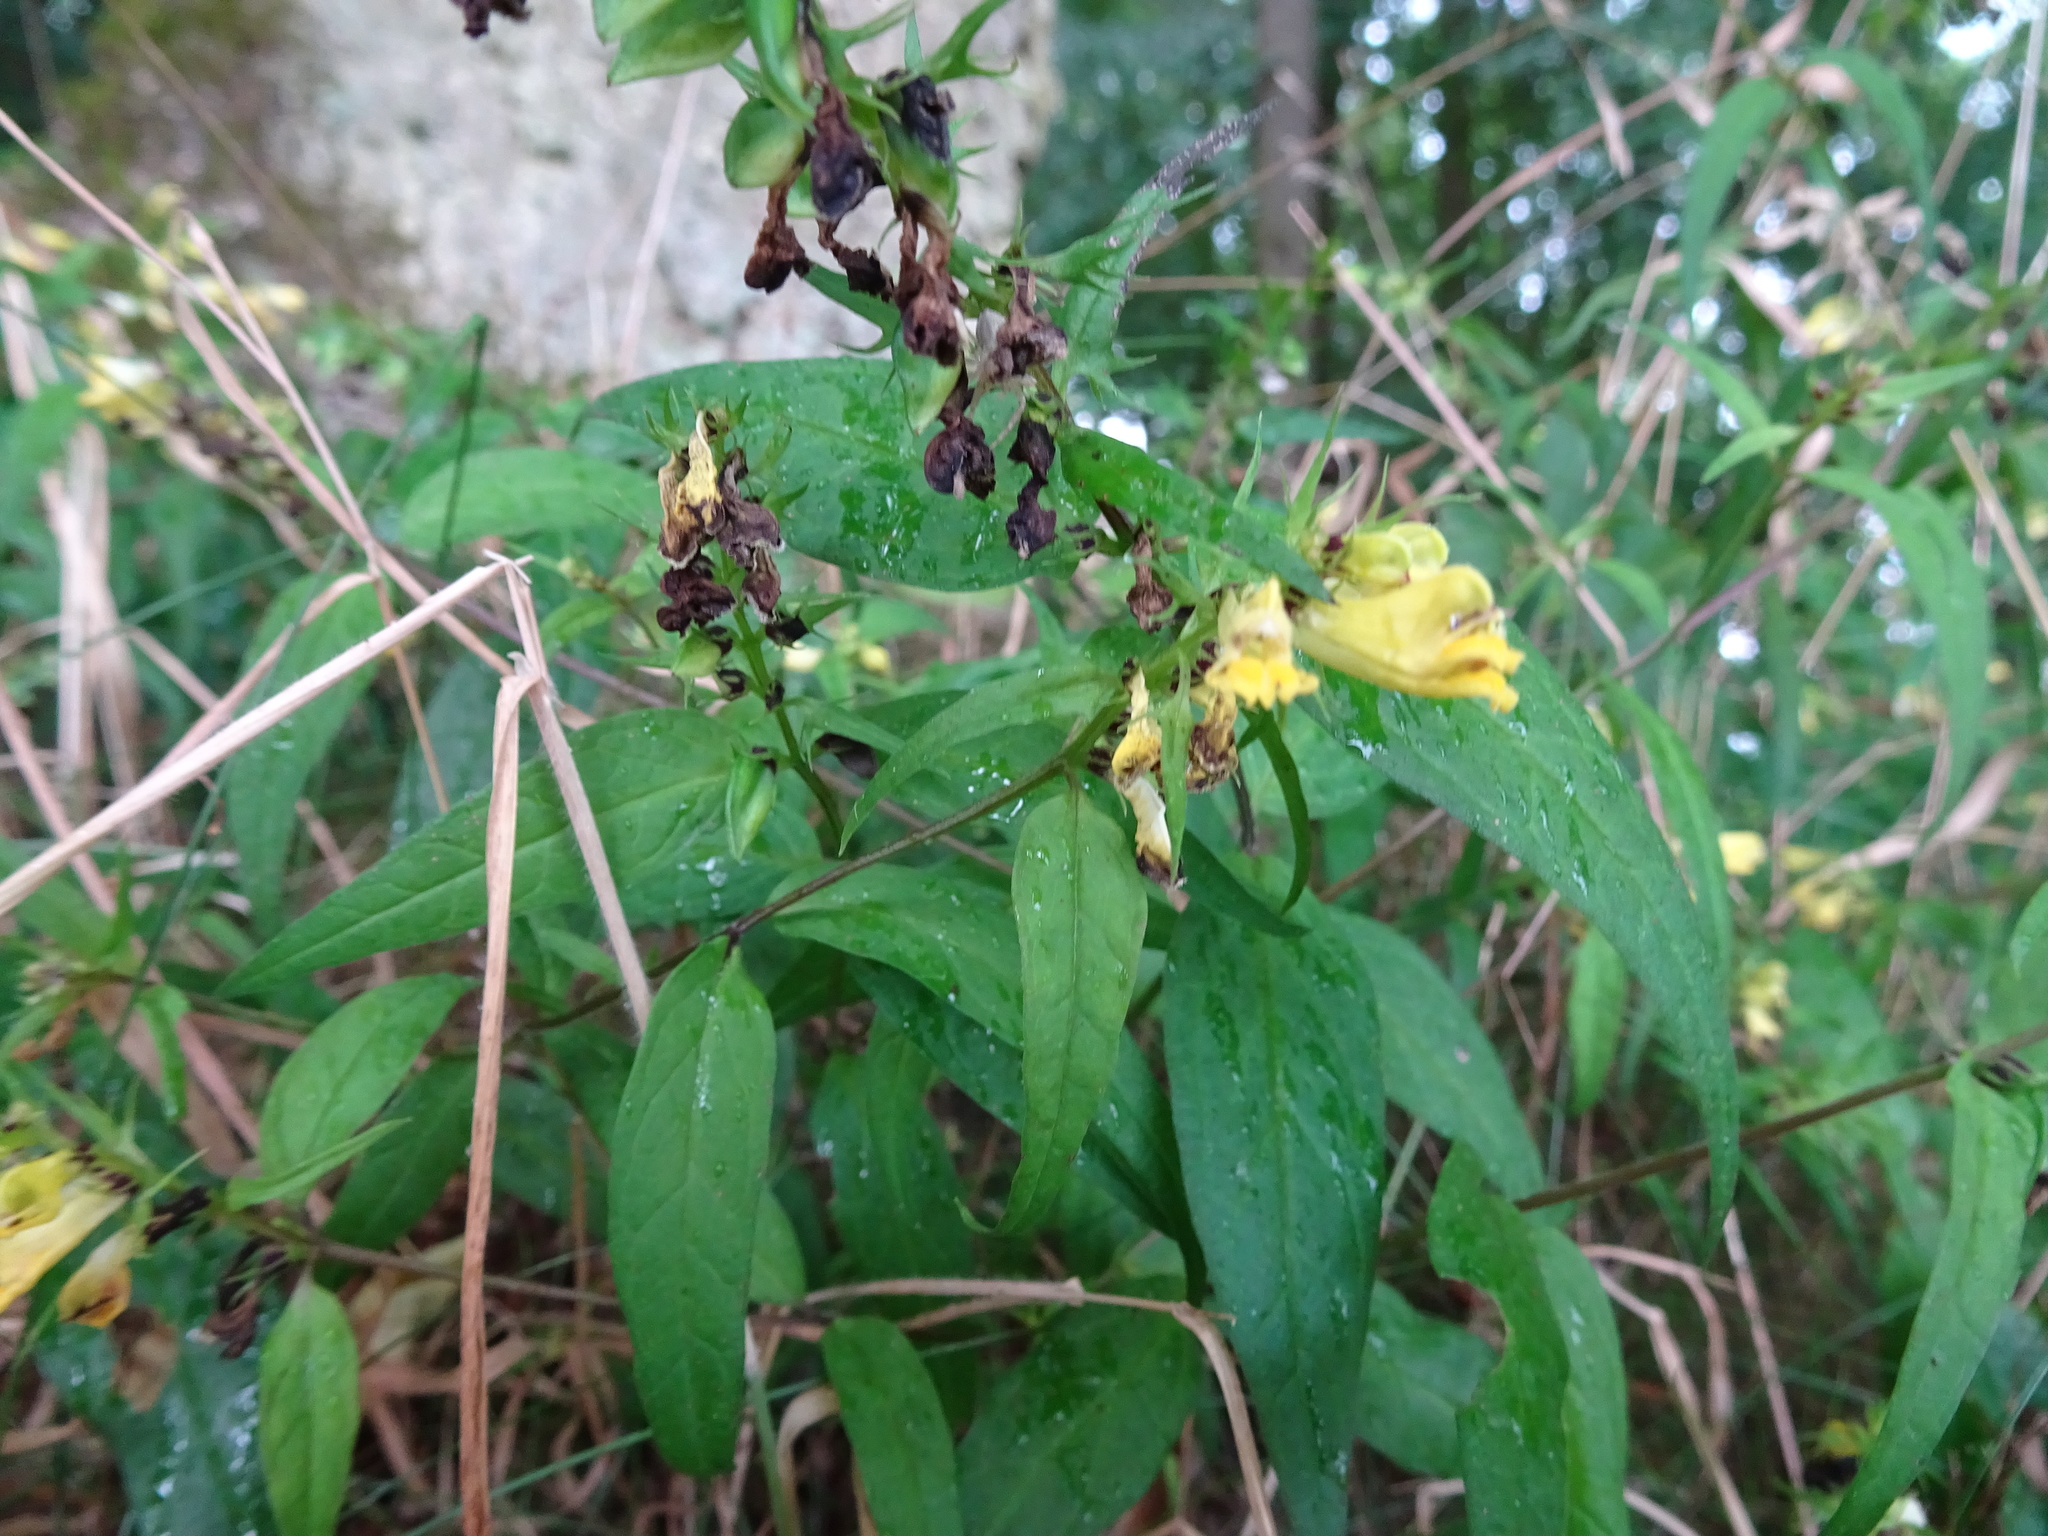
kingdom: Plantae
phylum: Tracheophyta
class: Magnoliopsida
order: Lamiales
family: Orobanchaceae
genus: Melampyrum
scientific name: Melampyrum pratense
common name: Common cow-wheat
